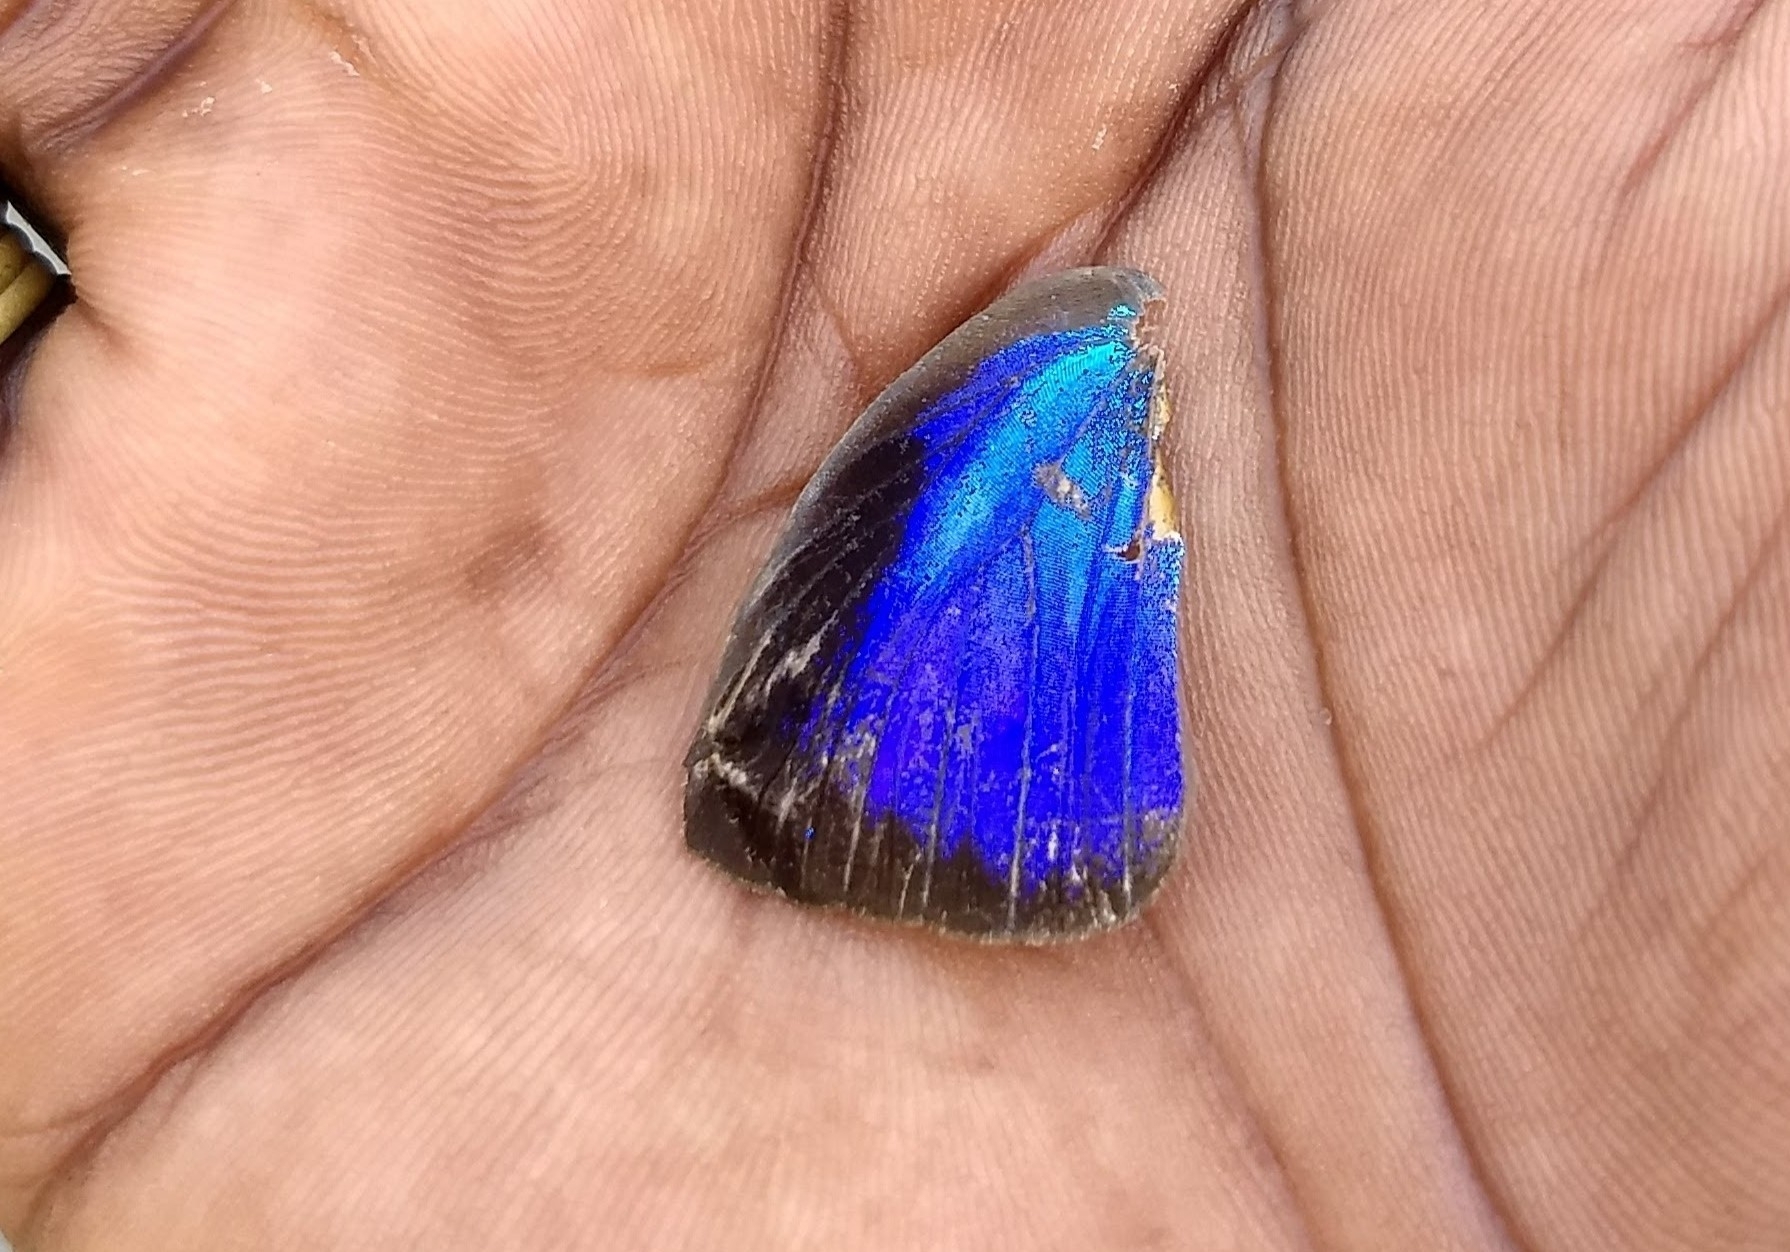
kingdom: Animalia
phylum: Arthropoda
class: Insecta
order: Lepidoptera
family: Lycaenidae
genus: Arhopala
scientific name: Arhopala centaurus
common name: Dull oak-blue
